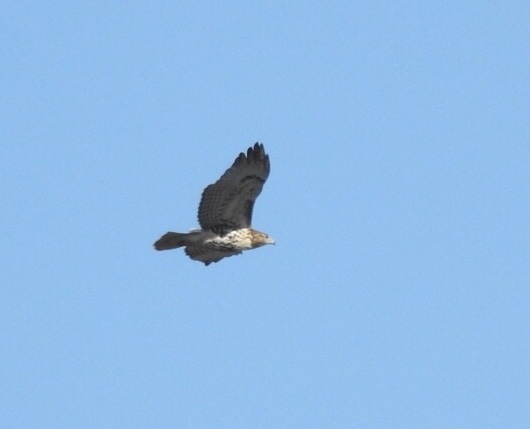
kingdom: Animalia
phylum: Chordata
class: Aves
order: Accipitriformes
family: Accipitridae
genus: Buteo
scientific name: Buteo jamaicensis
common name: Red-tailed hawk
